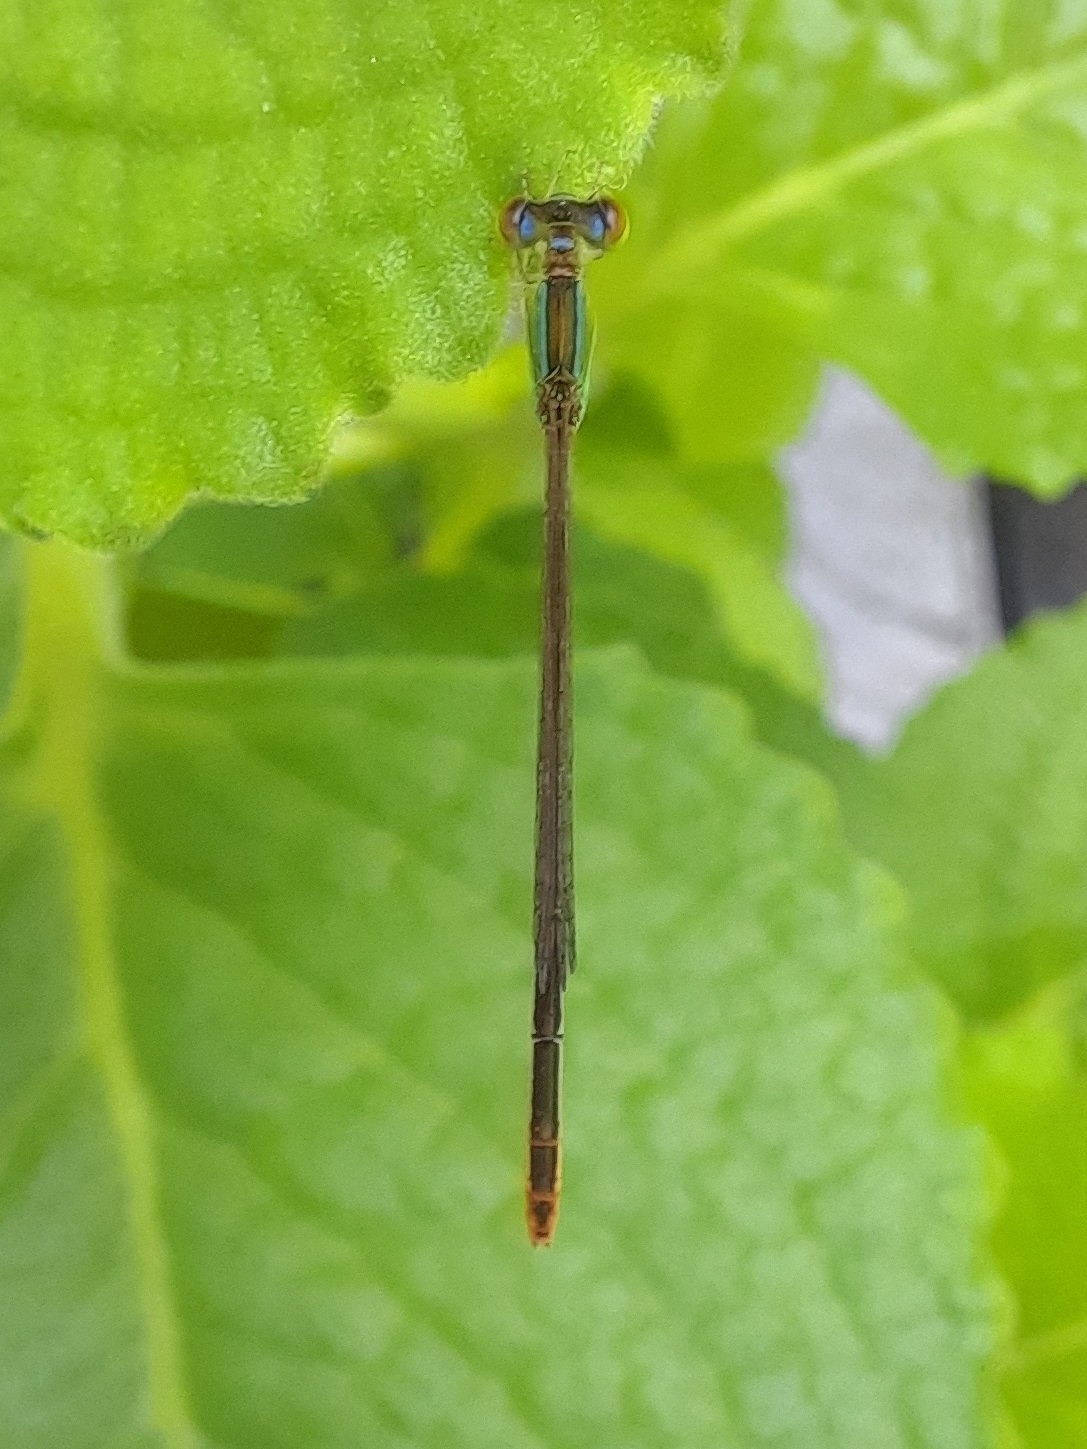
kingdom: Animalia
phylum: Arthropoda
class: Insecta
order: Odonata
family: Coenagrionidae
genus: Agriocnemis
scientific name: Agriocnemis pygmaea
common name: Pygmy wisp
